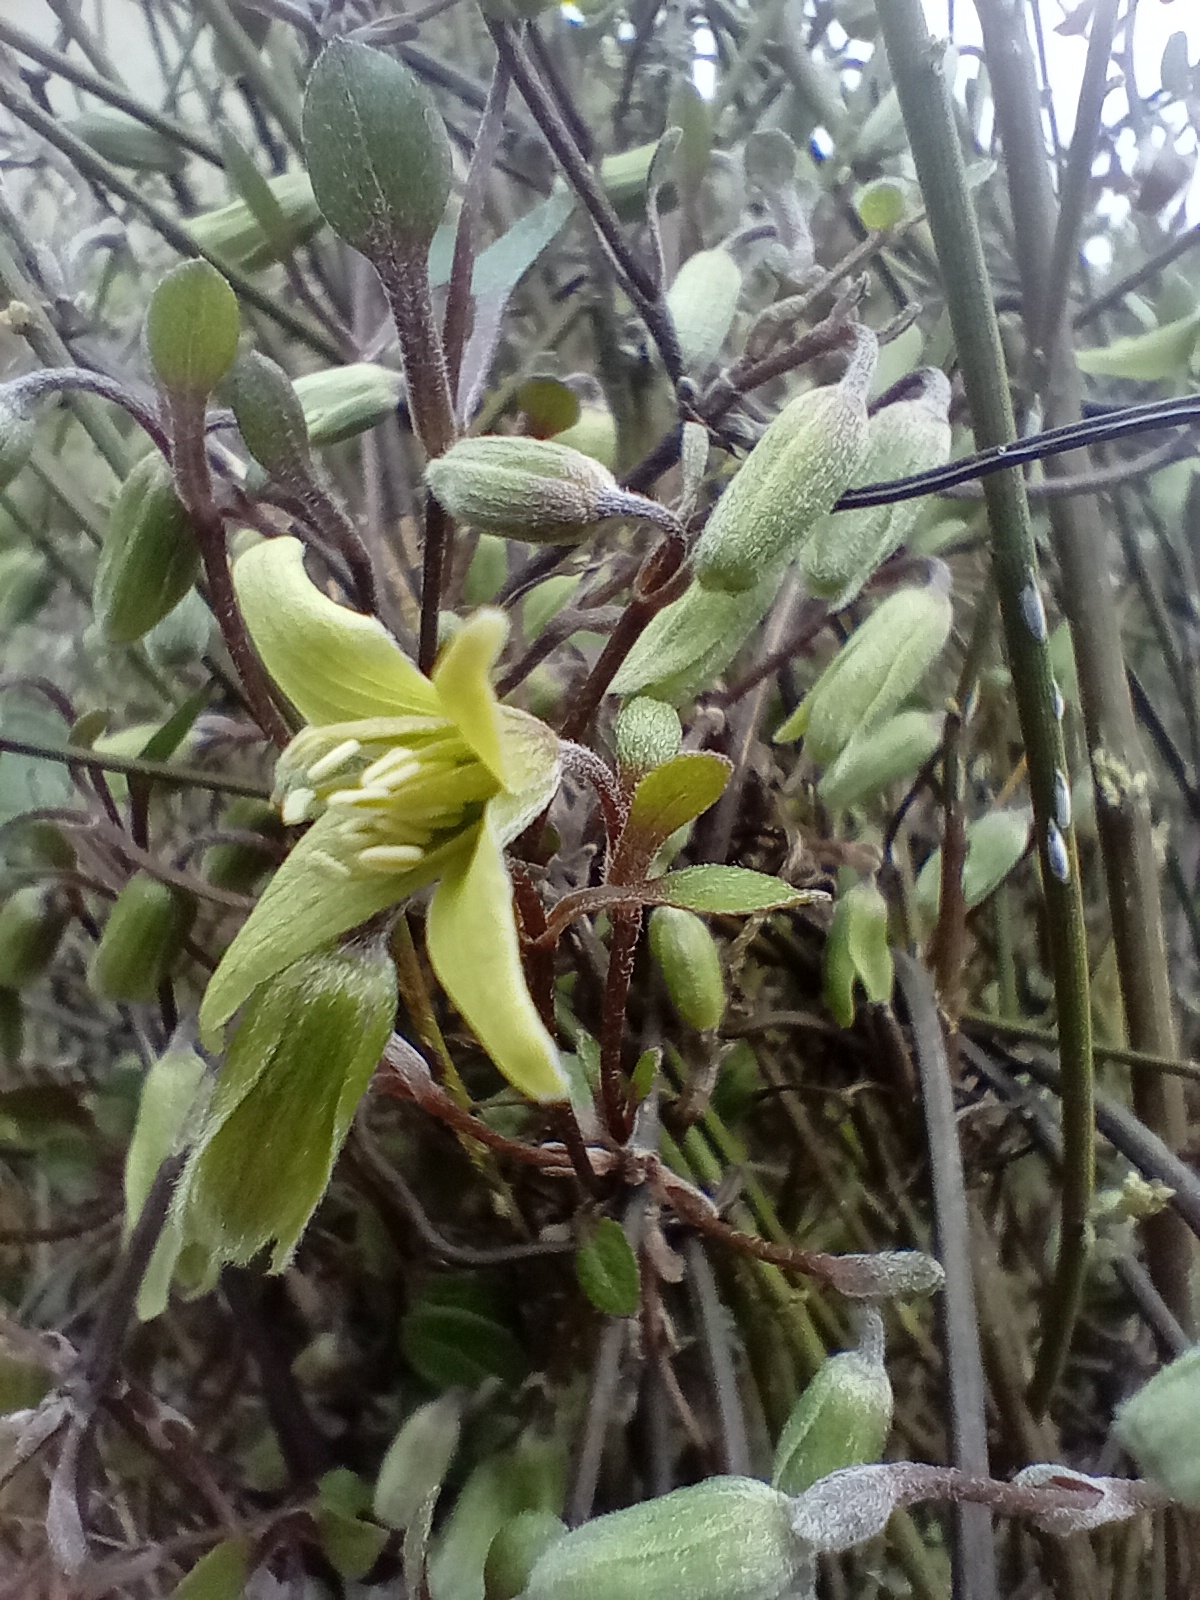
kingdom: Plantae
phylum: Tracheophyta
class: Magnoliopsida
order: Ranunculales
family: Ranunculaceae
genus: Clematis
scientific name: Clematis marata
